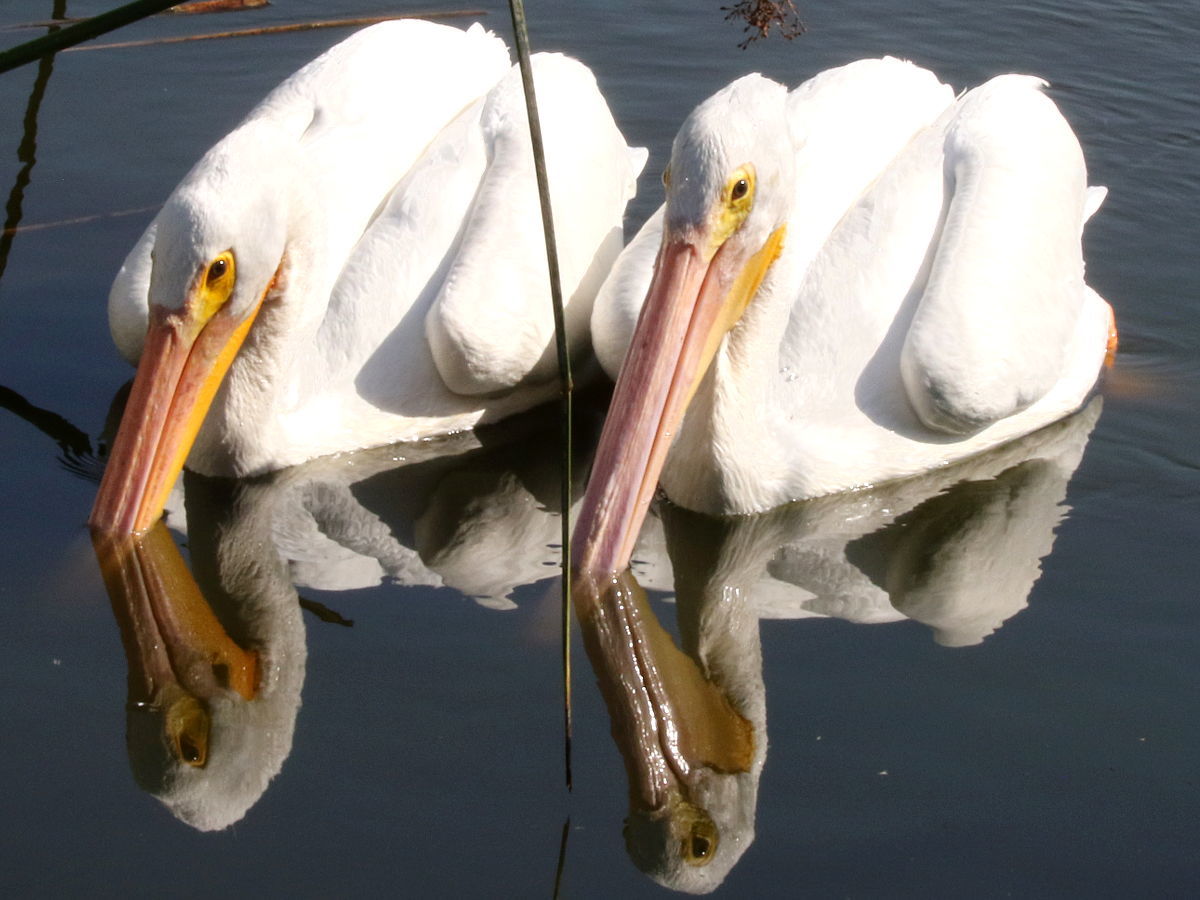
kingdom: Animalia
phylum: Chordata
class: Aves
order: Pelecaniformes
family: Pelecanidae
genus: Pelecanus
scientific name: Pelecanus erythrorhynchos
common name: American white pelican
